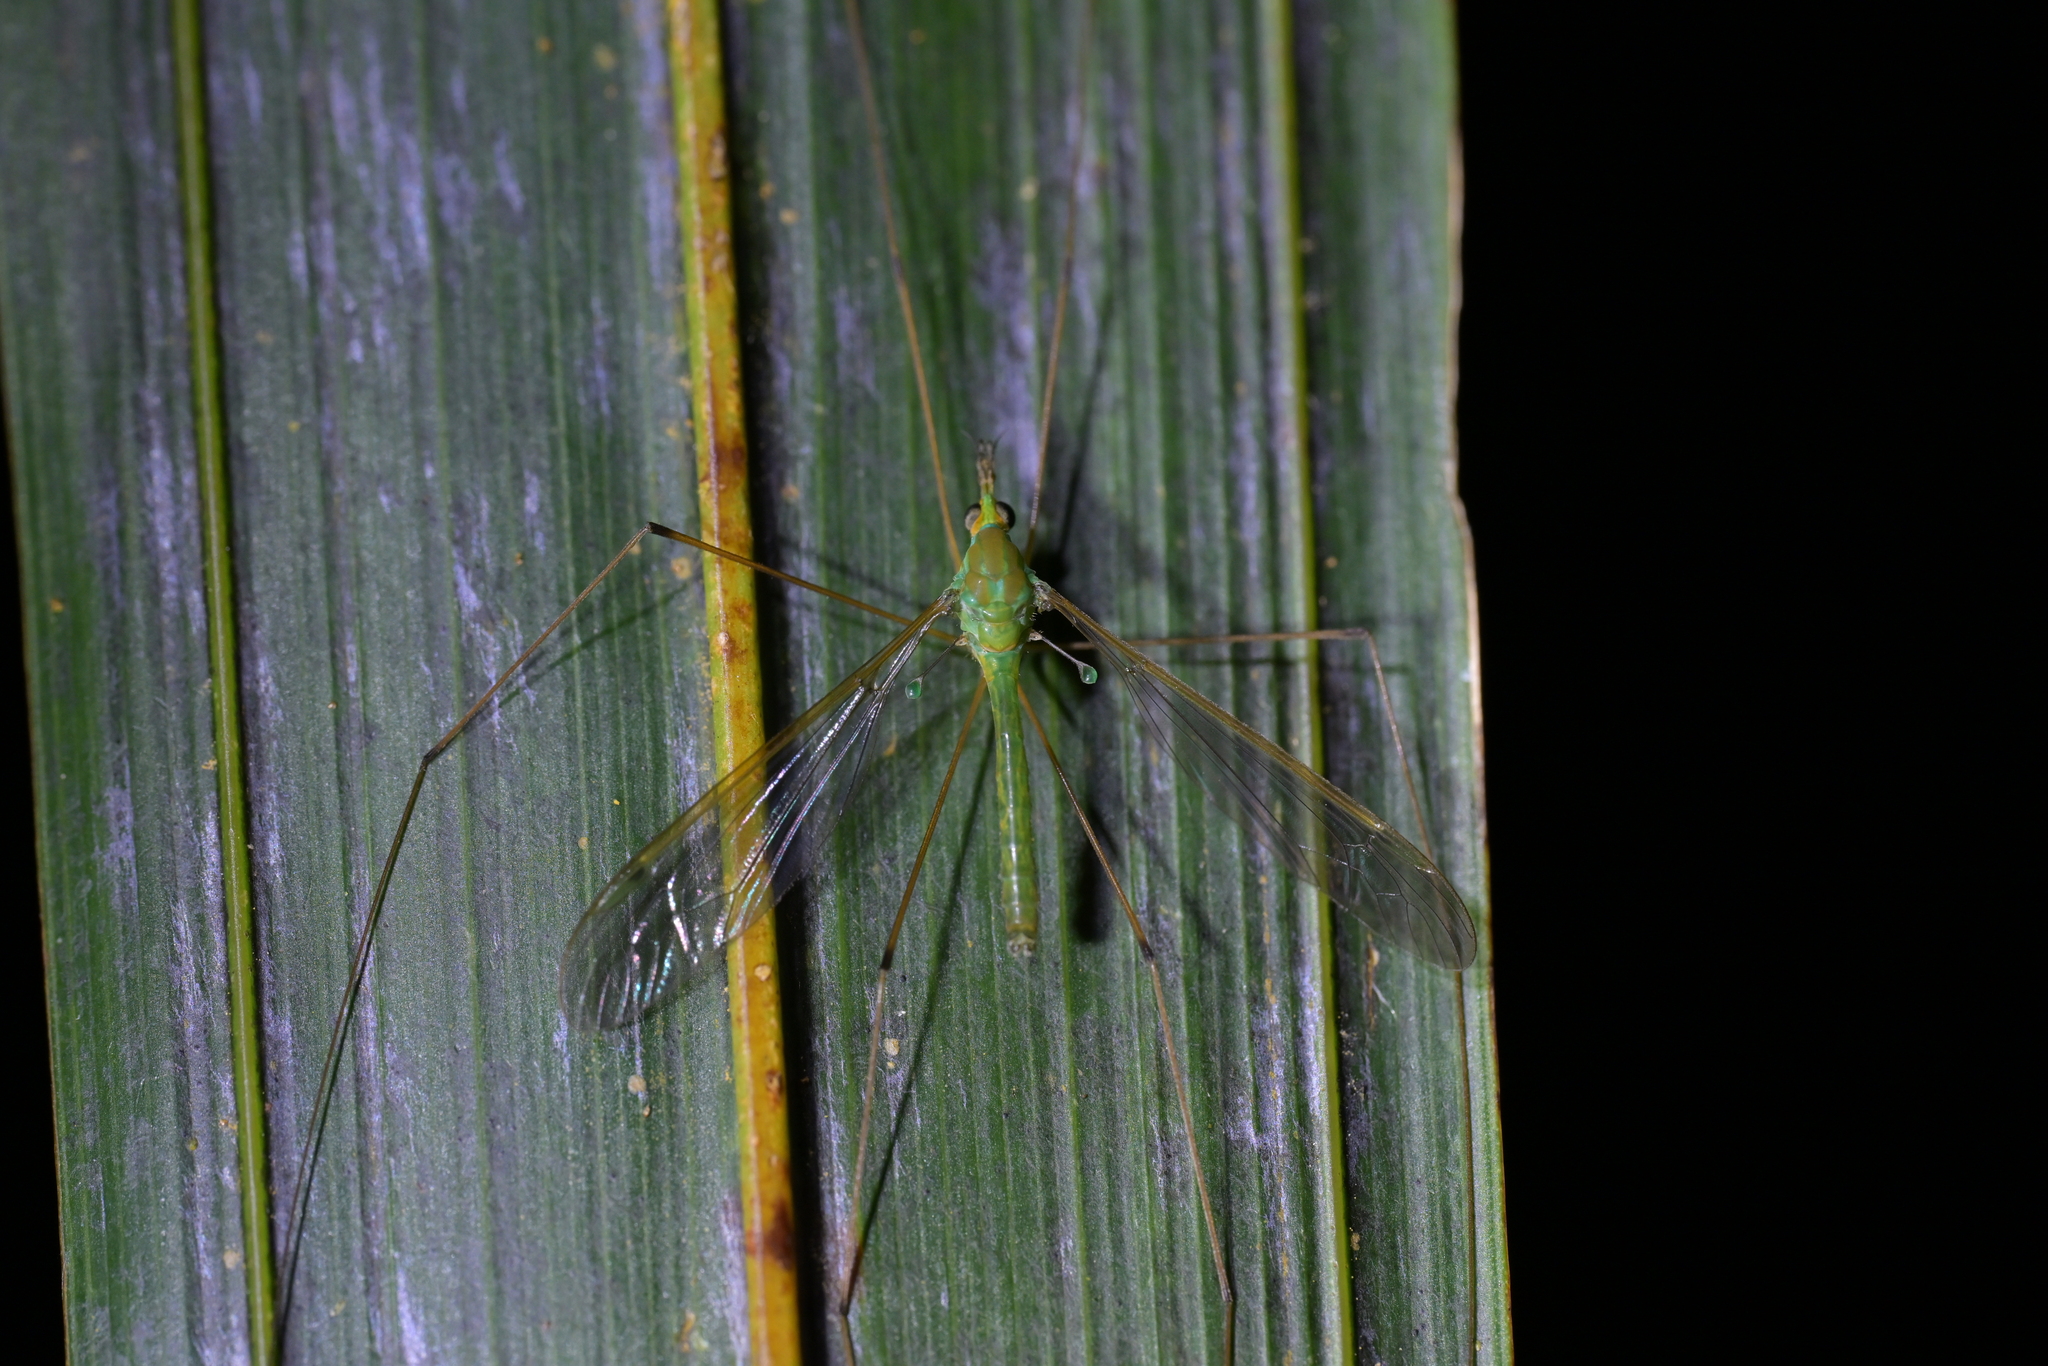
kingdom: Animalia
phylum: Arthropoda
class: Insecta
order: Diptera
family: Tipulidae
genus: Leptotarsus
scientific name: Leptotarsus virescens
